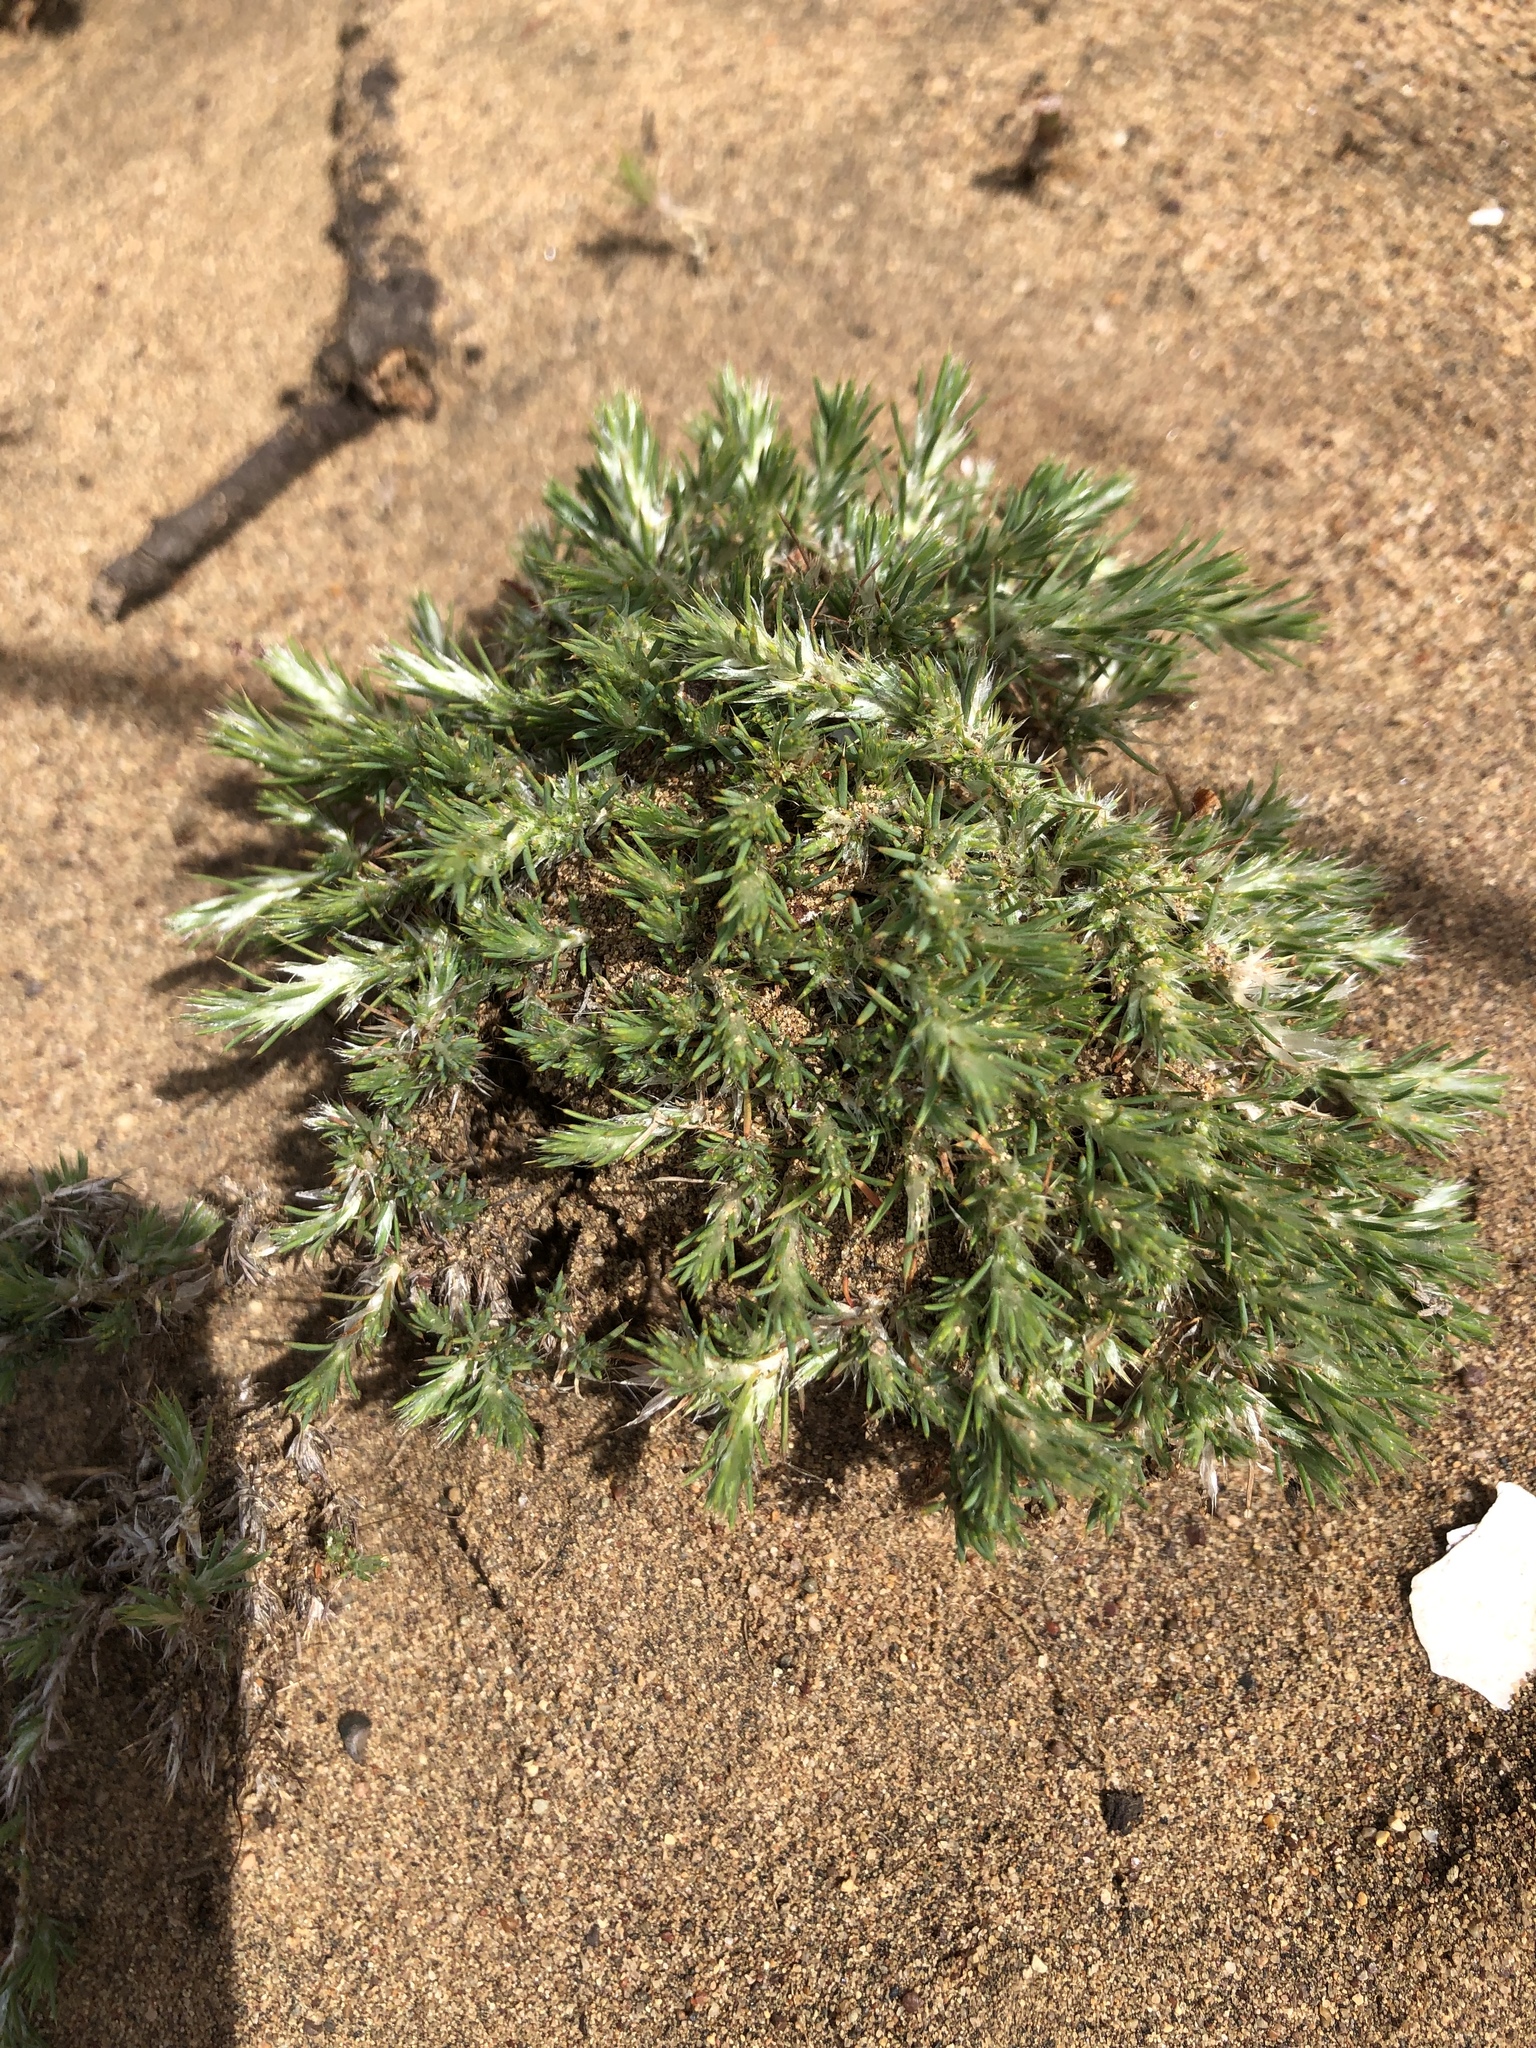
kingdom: Plantae
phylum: Tracheophyta
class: Magnoliopsida
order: Caryophyllales
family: Caryophyllaceae
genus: Cardionema
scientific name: Cardionema ramosissima
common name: Sandcarpet
